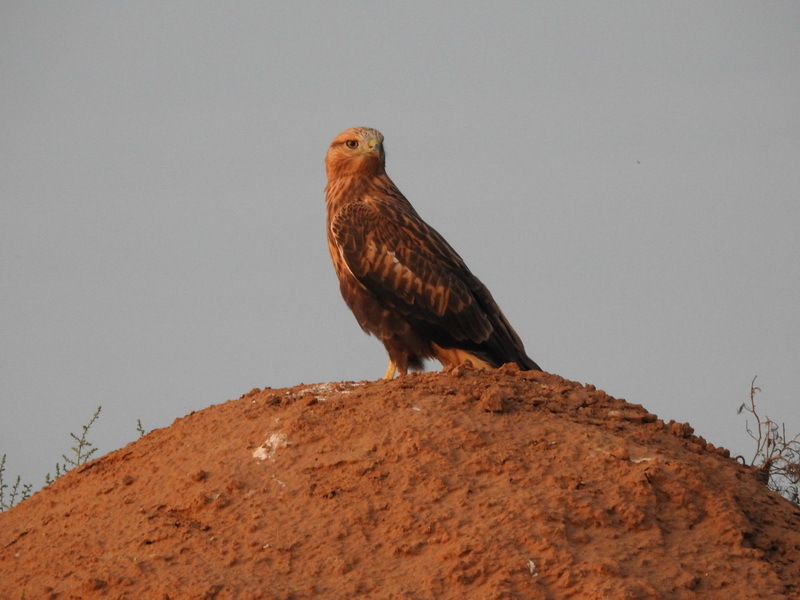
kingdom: Animalia
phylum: Chordata
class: Aves
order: Accipitriformes
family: Accipitridae
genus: Buteo
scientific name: Buteo rufinus
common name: Long-legged buzzard
